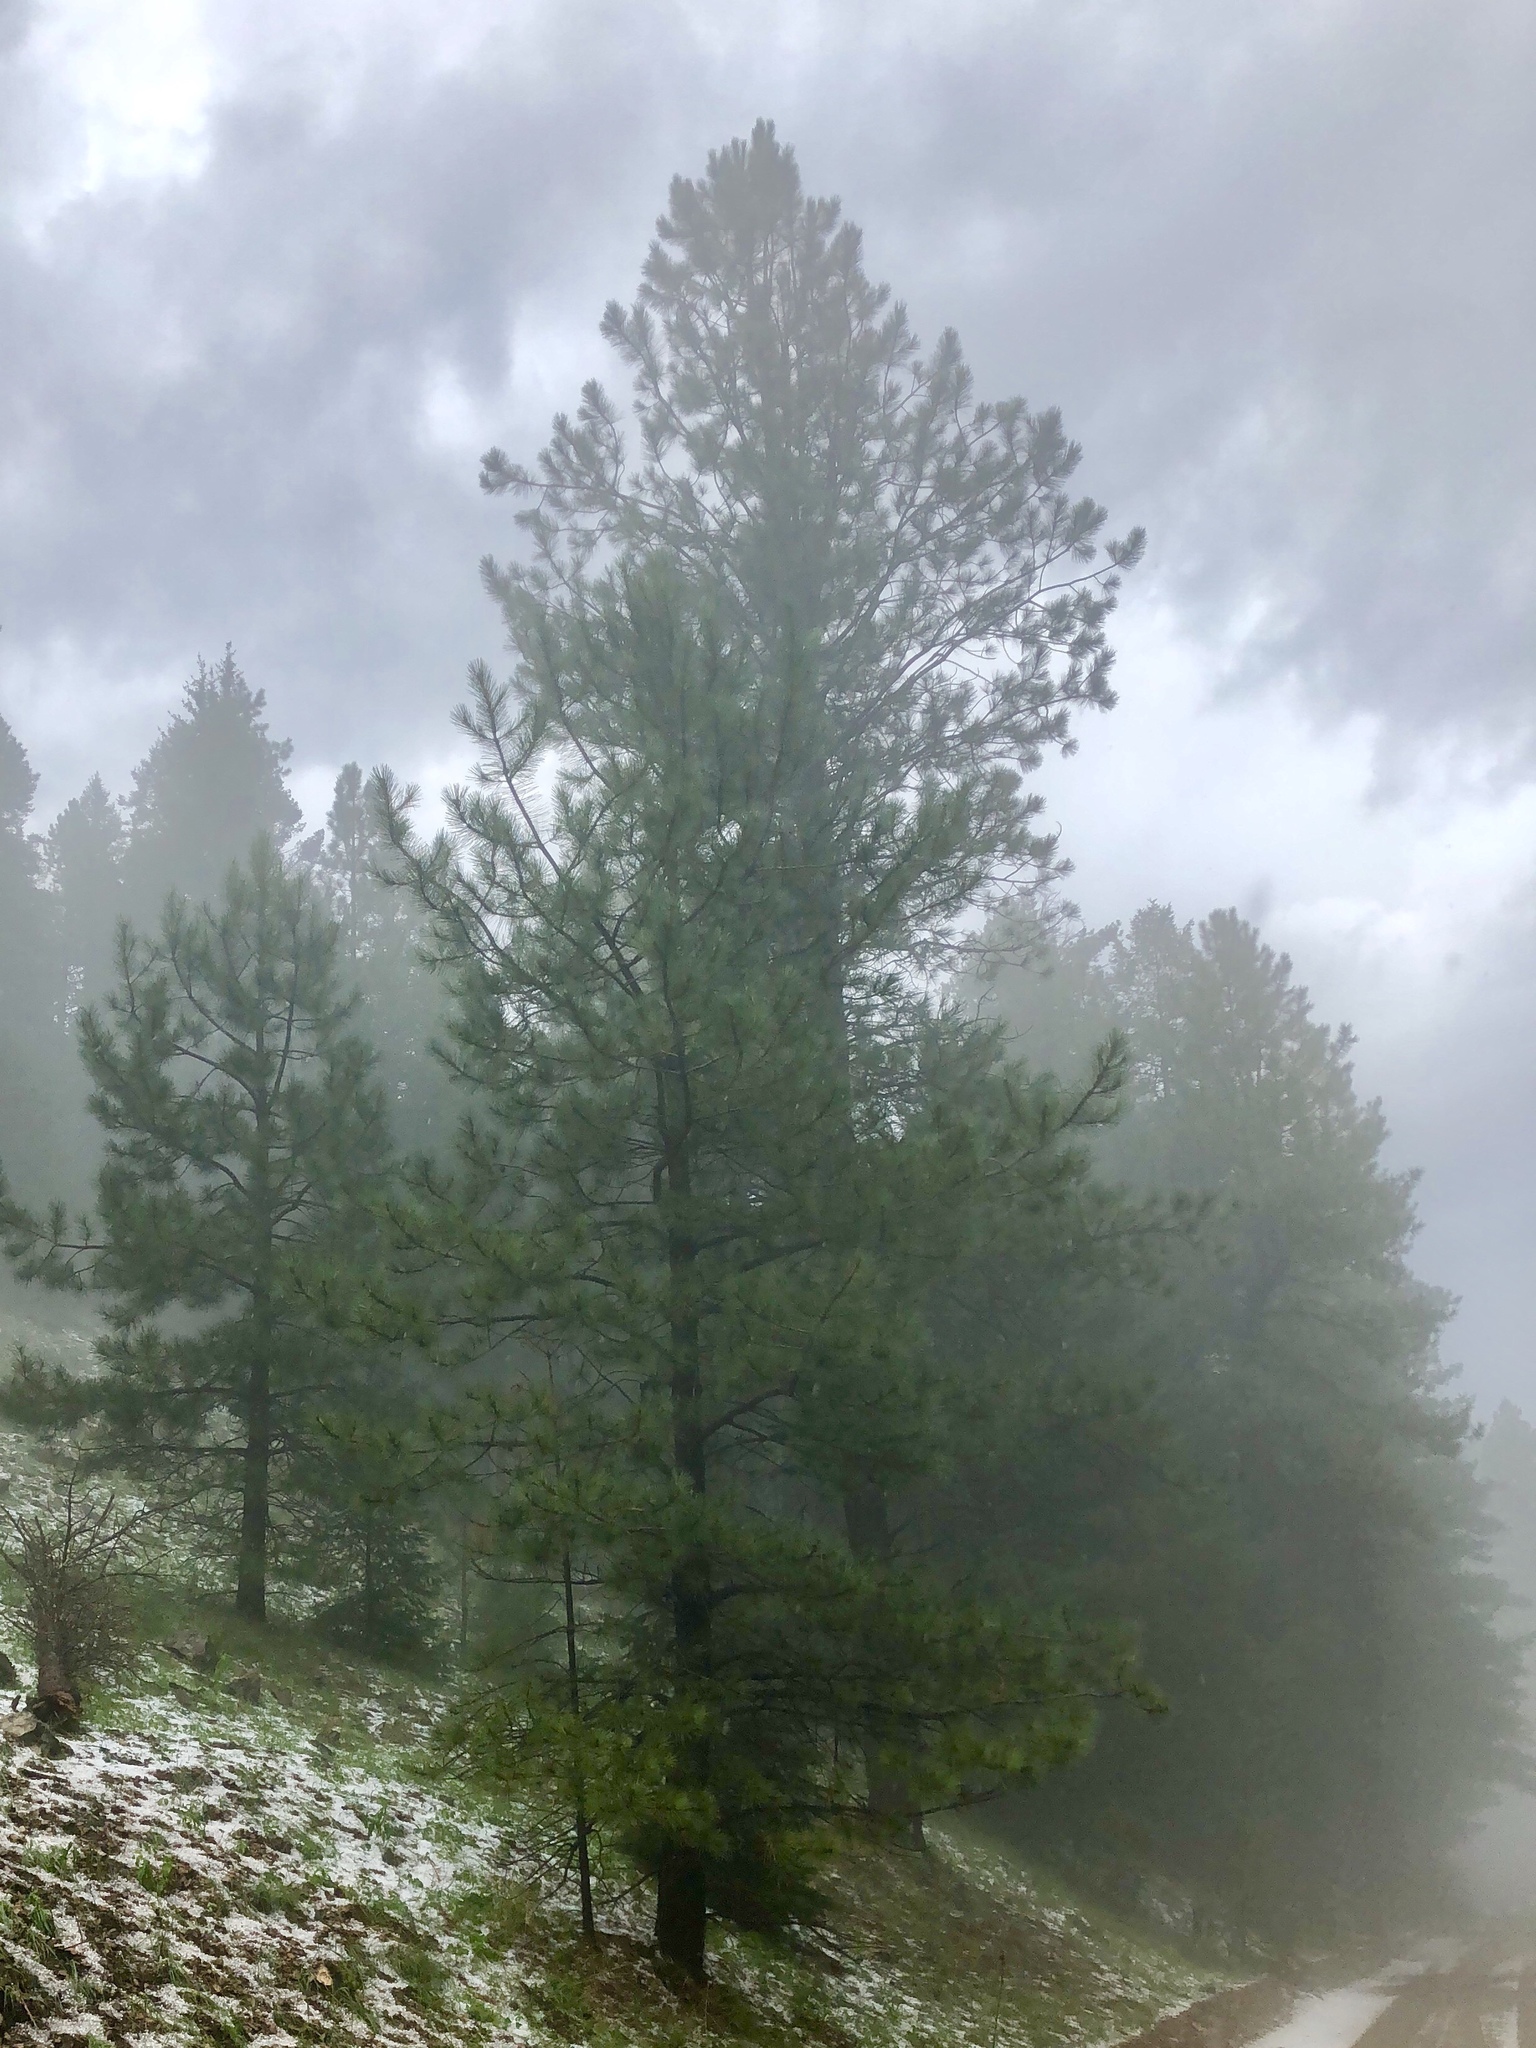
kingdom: Plantae
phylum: Tracheophyta
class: Pinopsida
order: Pinales
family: Pinaceae
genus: Pinus
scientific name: Pinus ponderosa
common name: Western yellow-pine
